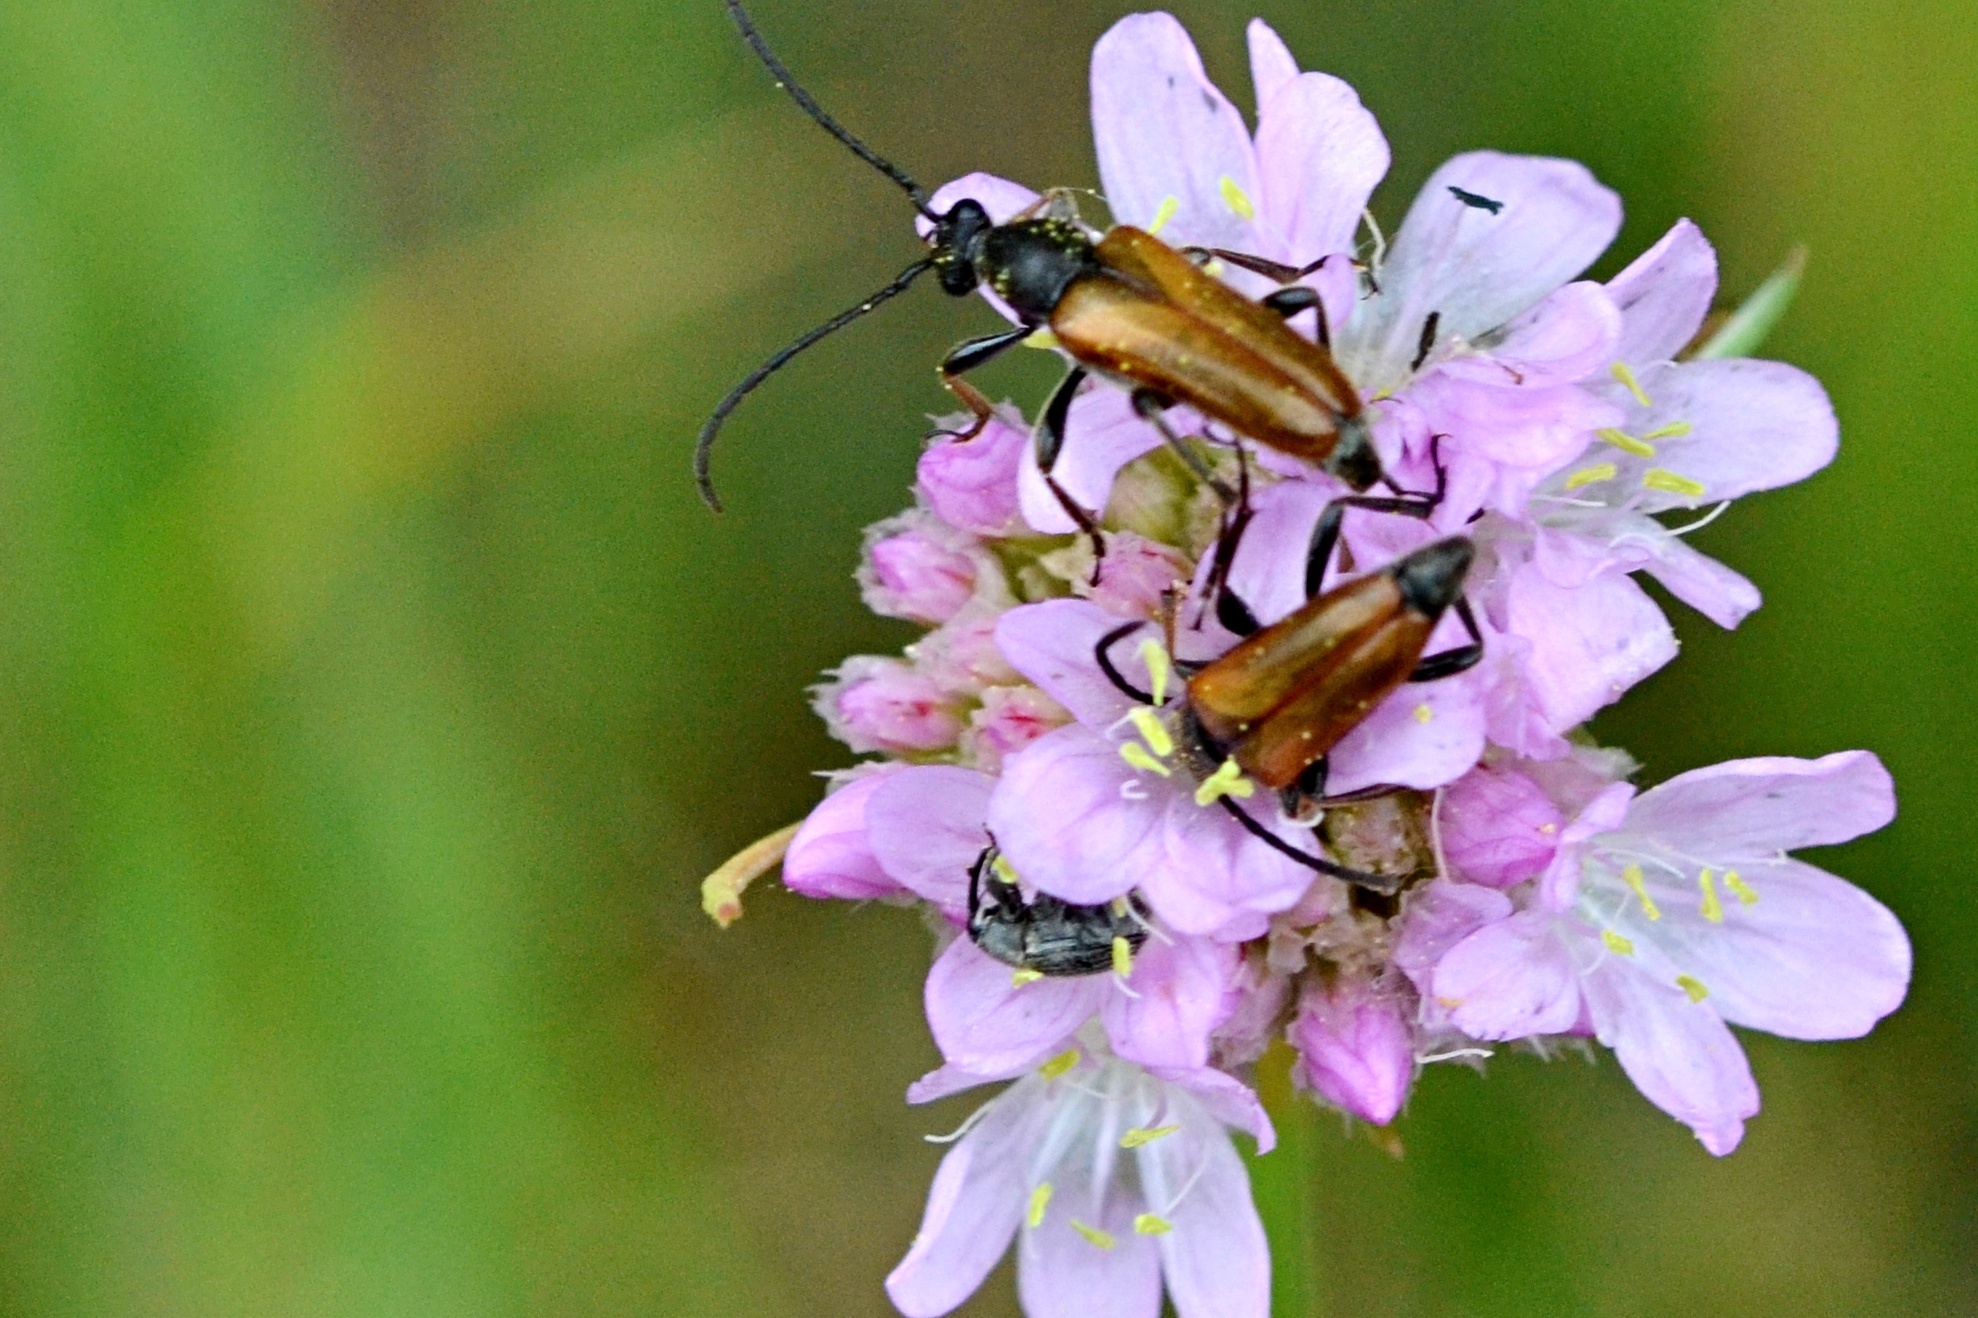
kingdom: Animalia
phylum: Arthropoda
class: Insecta
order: Coleoptera
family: Cerambycidae
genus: Pseudovadonia
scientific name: Pseudovadonia livida
